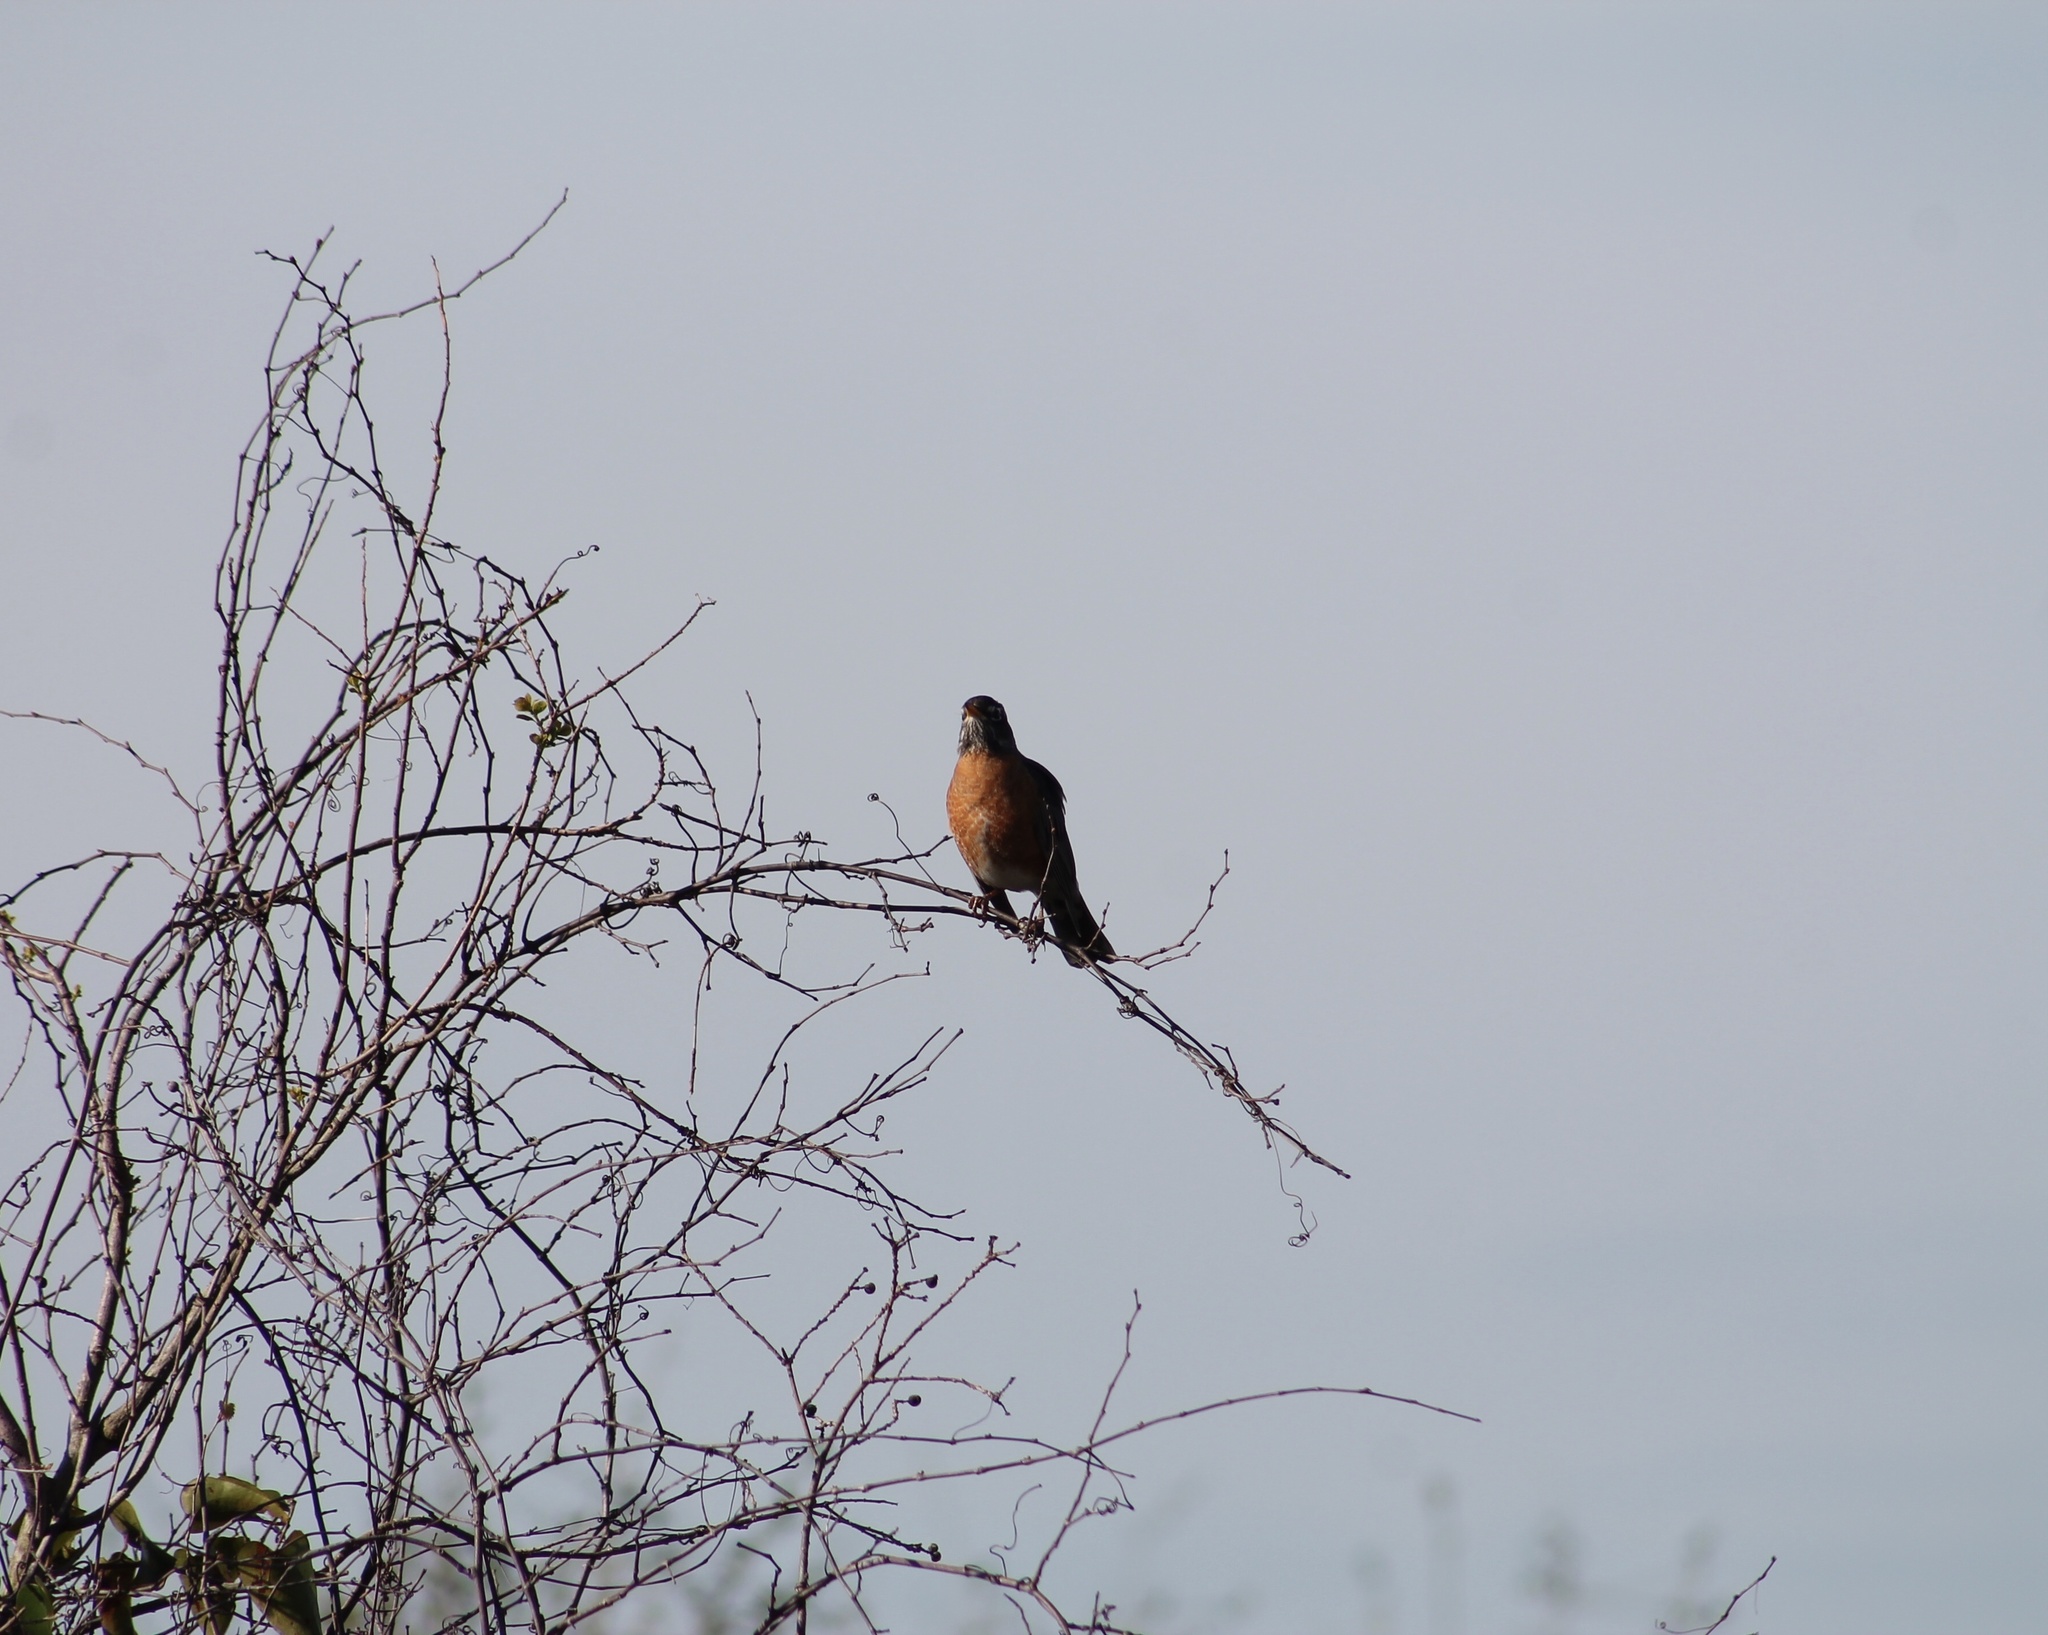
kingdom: Animalia
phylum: Chordata
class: Aves
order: Passeriformes
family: Turdidae
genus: Turdus
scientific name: Turdus migratorius
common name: American robin
